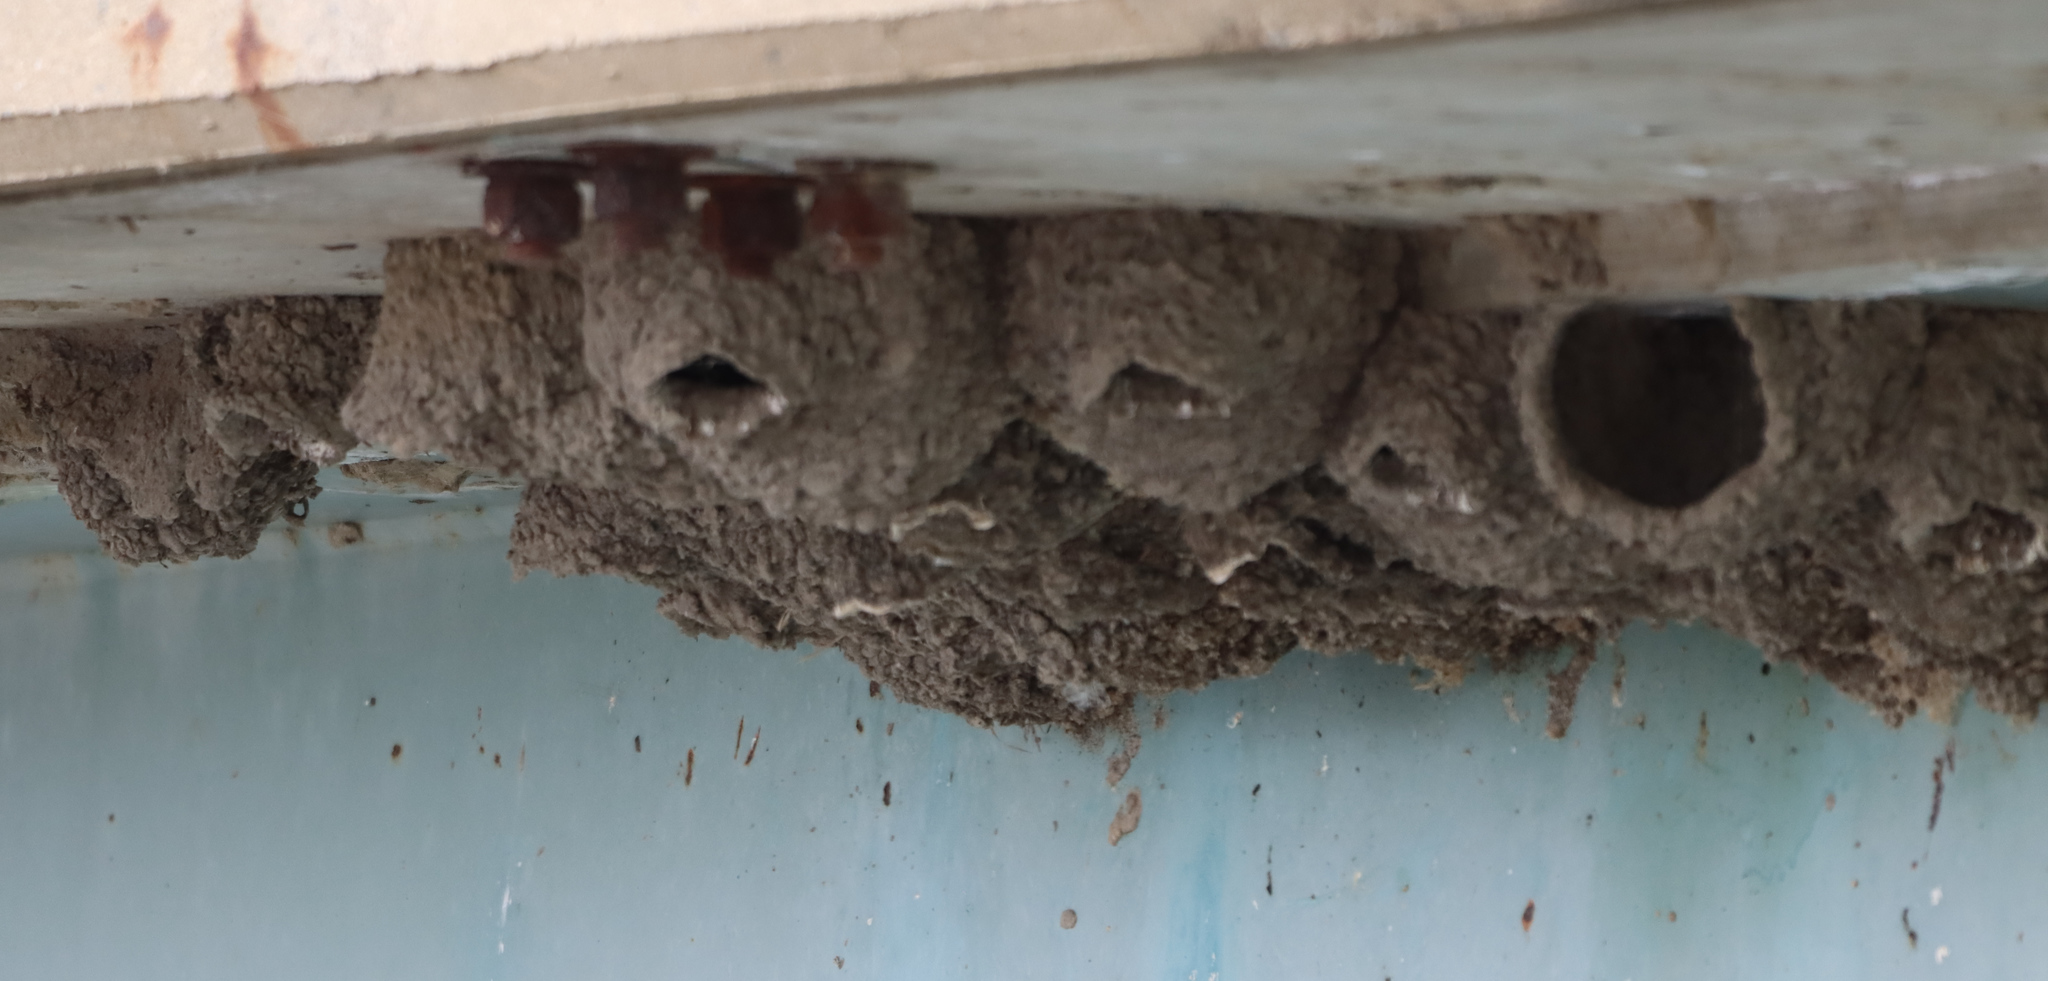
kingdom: Animalia
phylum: Chordata
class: Aves
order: Passeriformes
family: Hirundinidae
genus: Petrochelidon
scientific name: Petrochelidon pyrrhonota
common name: American cliff swallow
